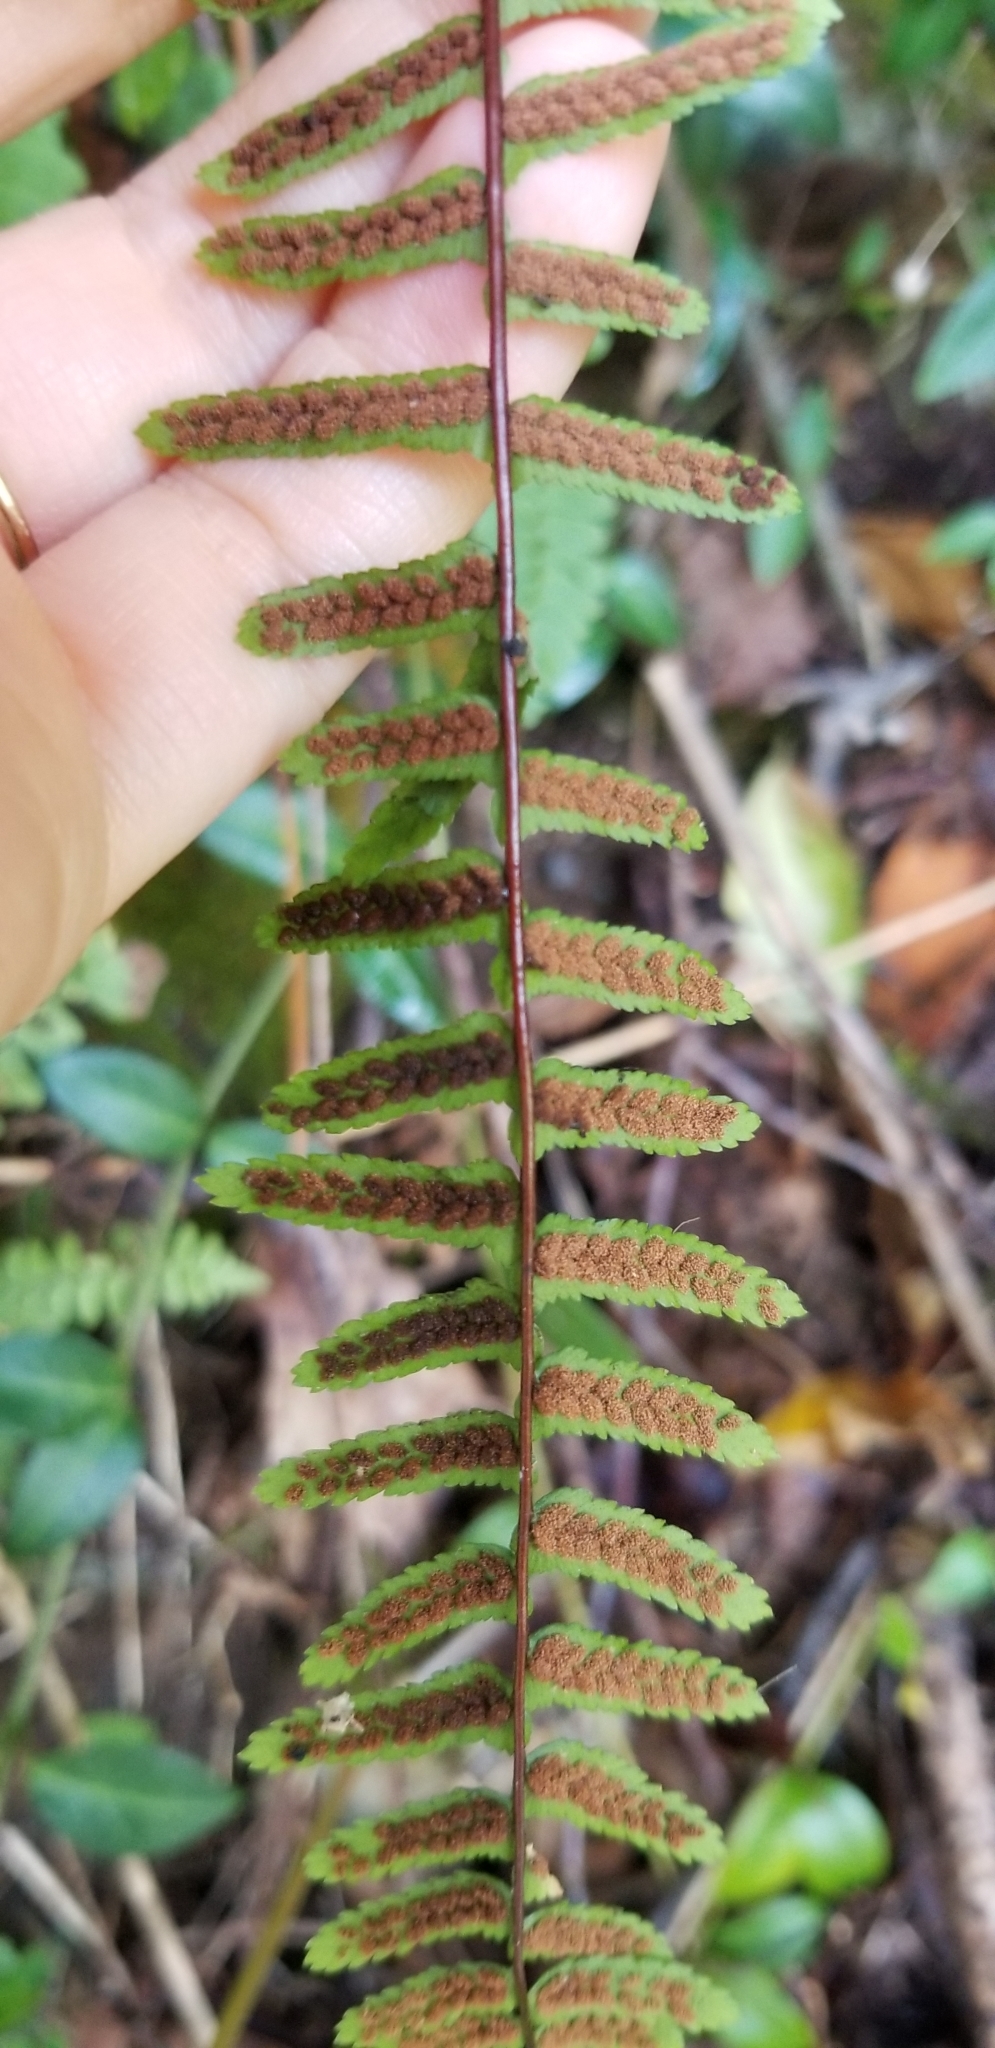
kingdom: Plantae
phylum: Tracheophyta
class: Polypodiopsida
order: Polypodiales
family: Aspleniaceae
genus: Asplenium
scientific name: Asplenium platyneuron
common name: Ebony spleenwort
